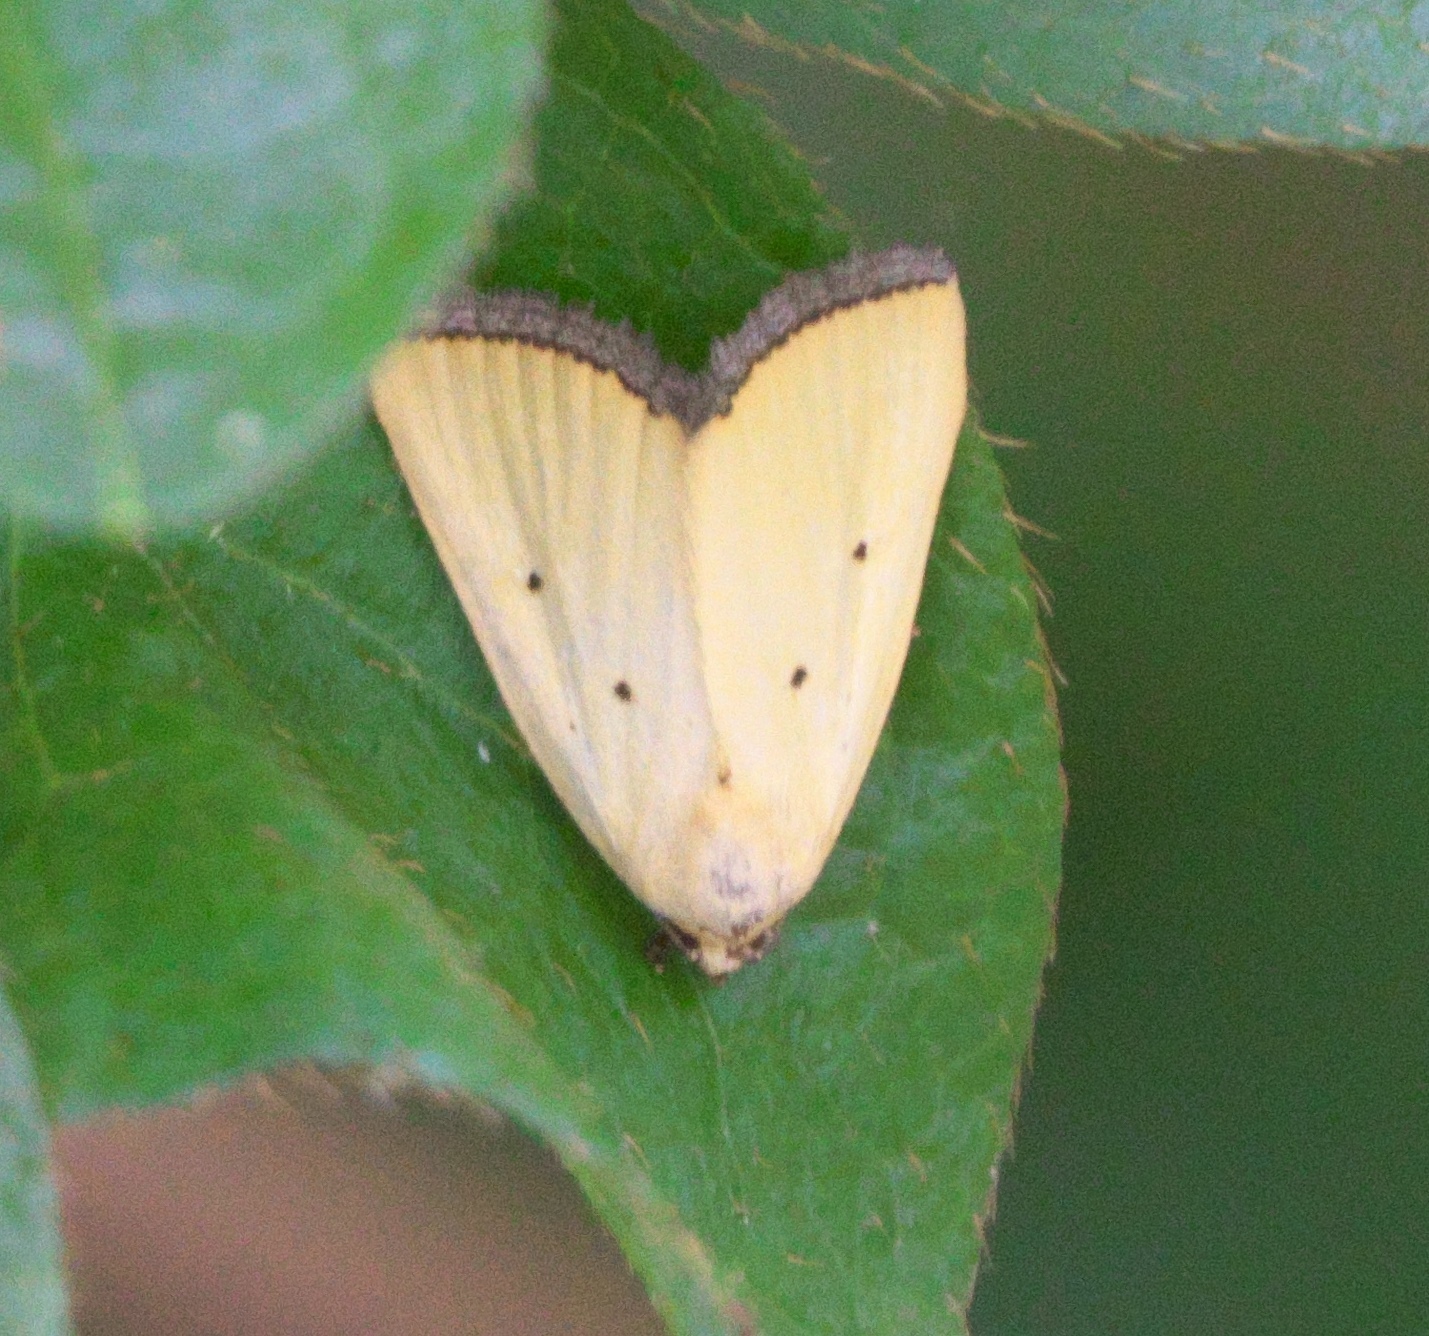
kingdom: Animalia
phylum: Arthropoda
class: Insecta
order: Lepidoptera
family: Noctuidae
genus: Marimatha
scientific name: Marimatha nigrofimbria
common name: Black-bordered lemon moth
